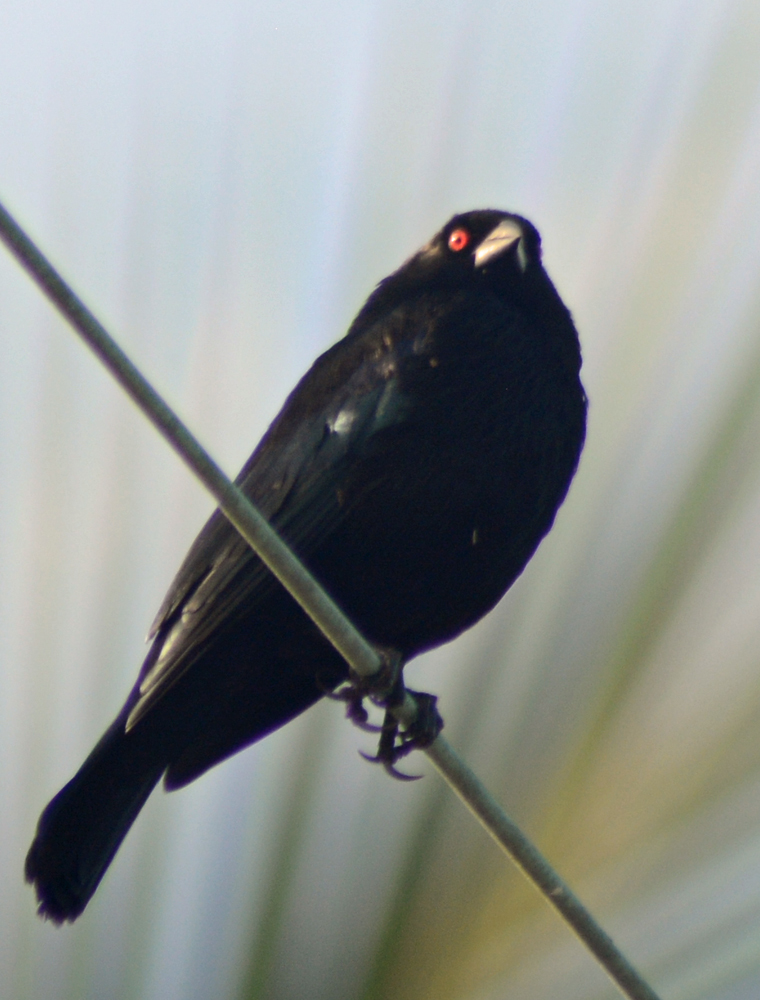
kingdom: Animalia
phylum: Chordata
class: Aves
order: Passeriformes
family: Icteridae
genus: Molothrus
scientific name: Molothrus aeneus
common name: Bronzed cowbird
